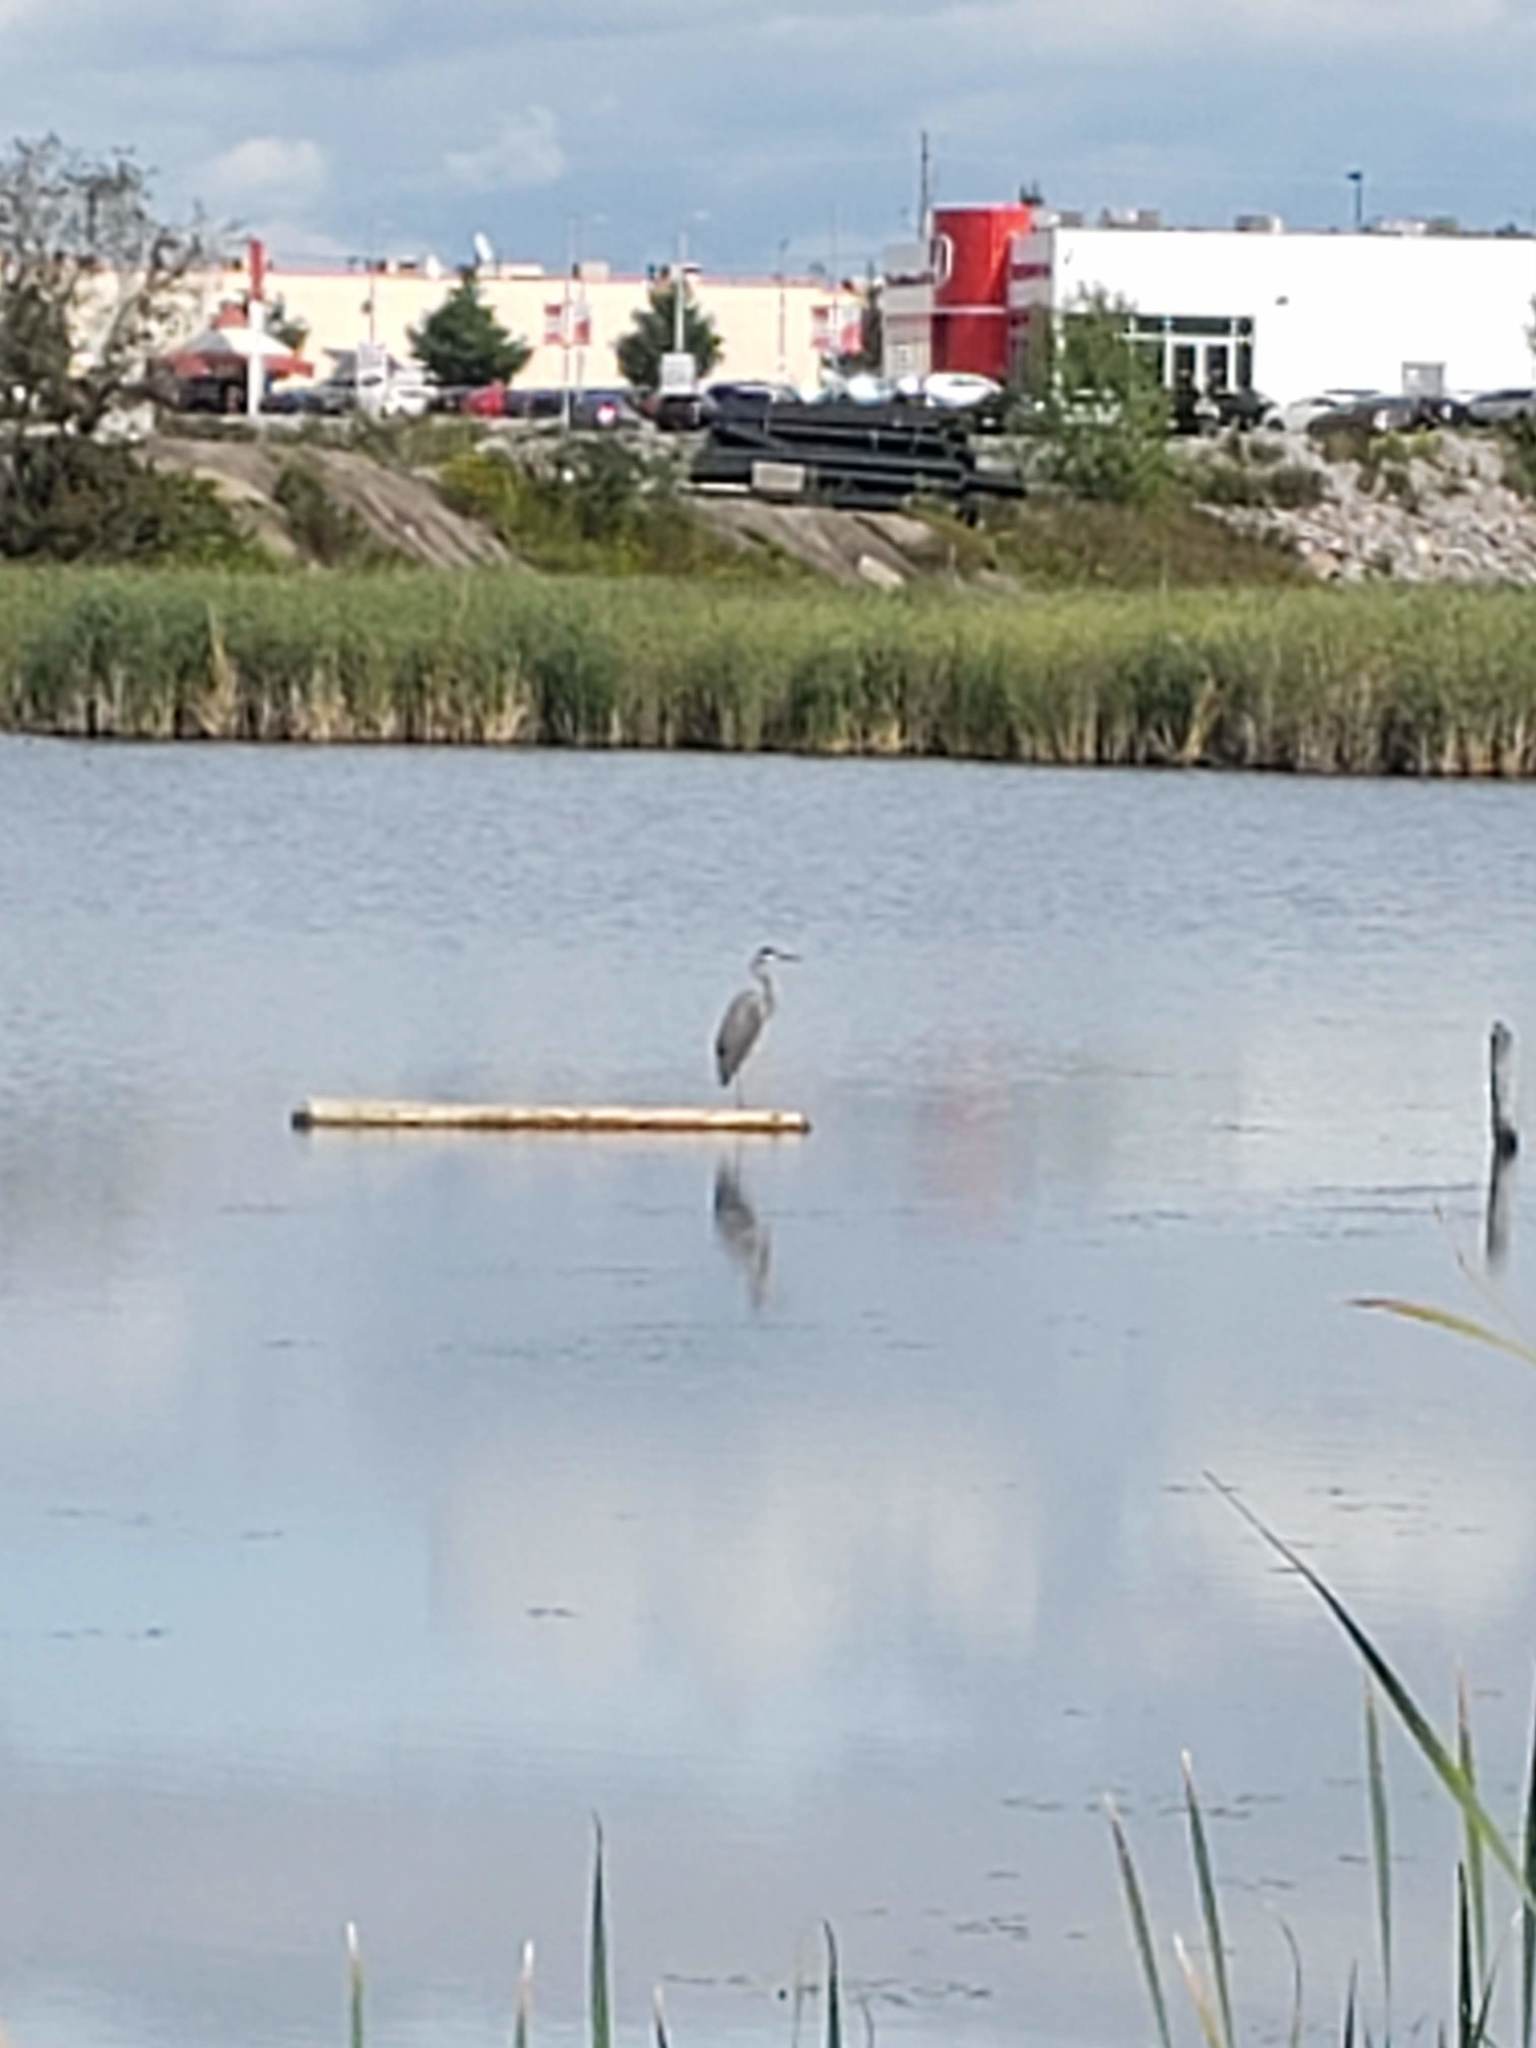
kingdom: Animalia
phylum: Chordata
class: Aves
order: Pelecaniformes
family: Ardeidae
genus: Ardea
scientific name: Ardea herodias
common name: Great blue heron
